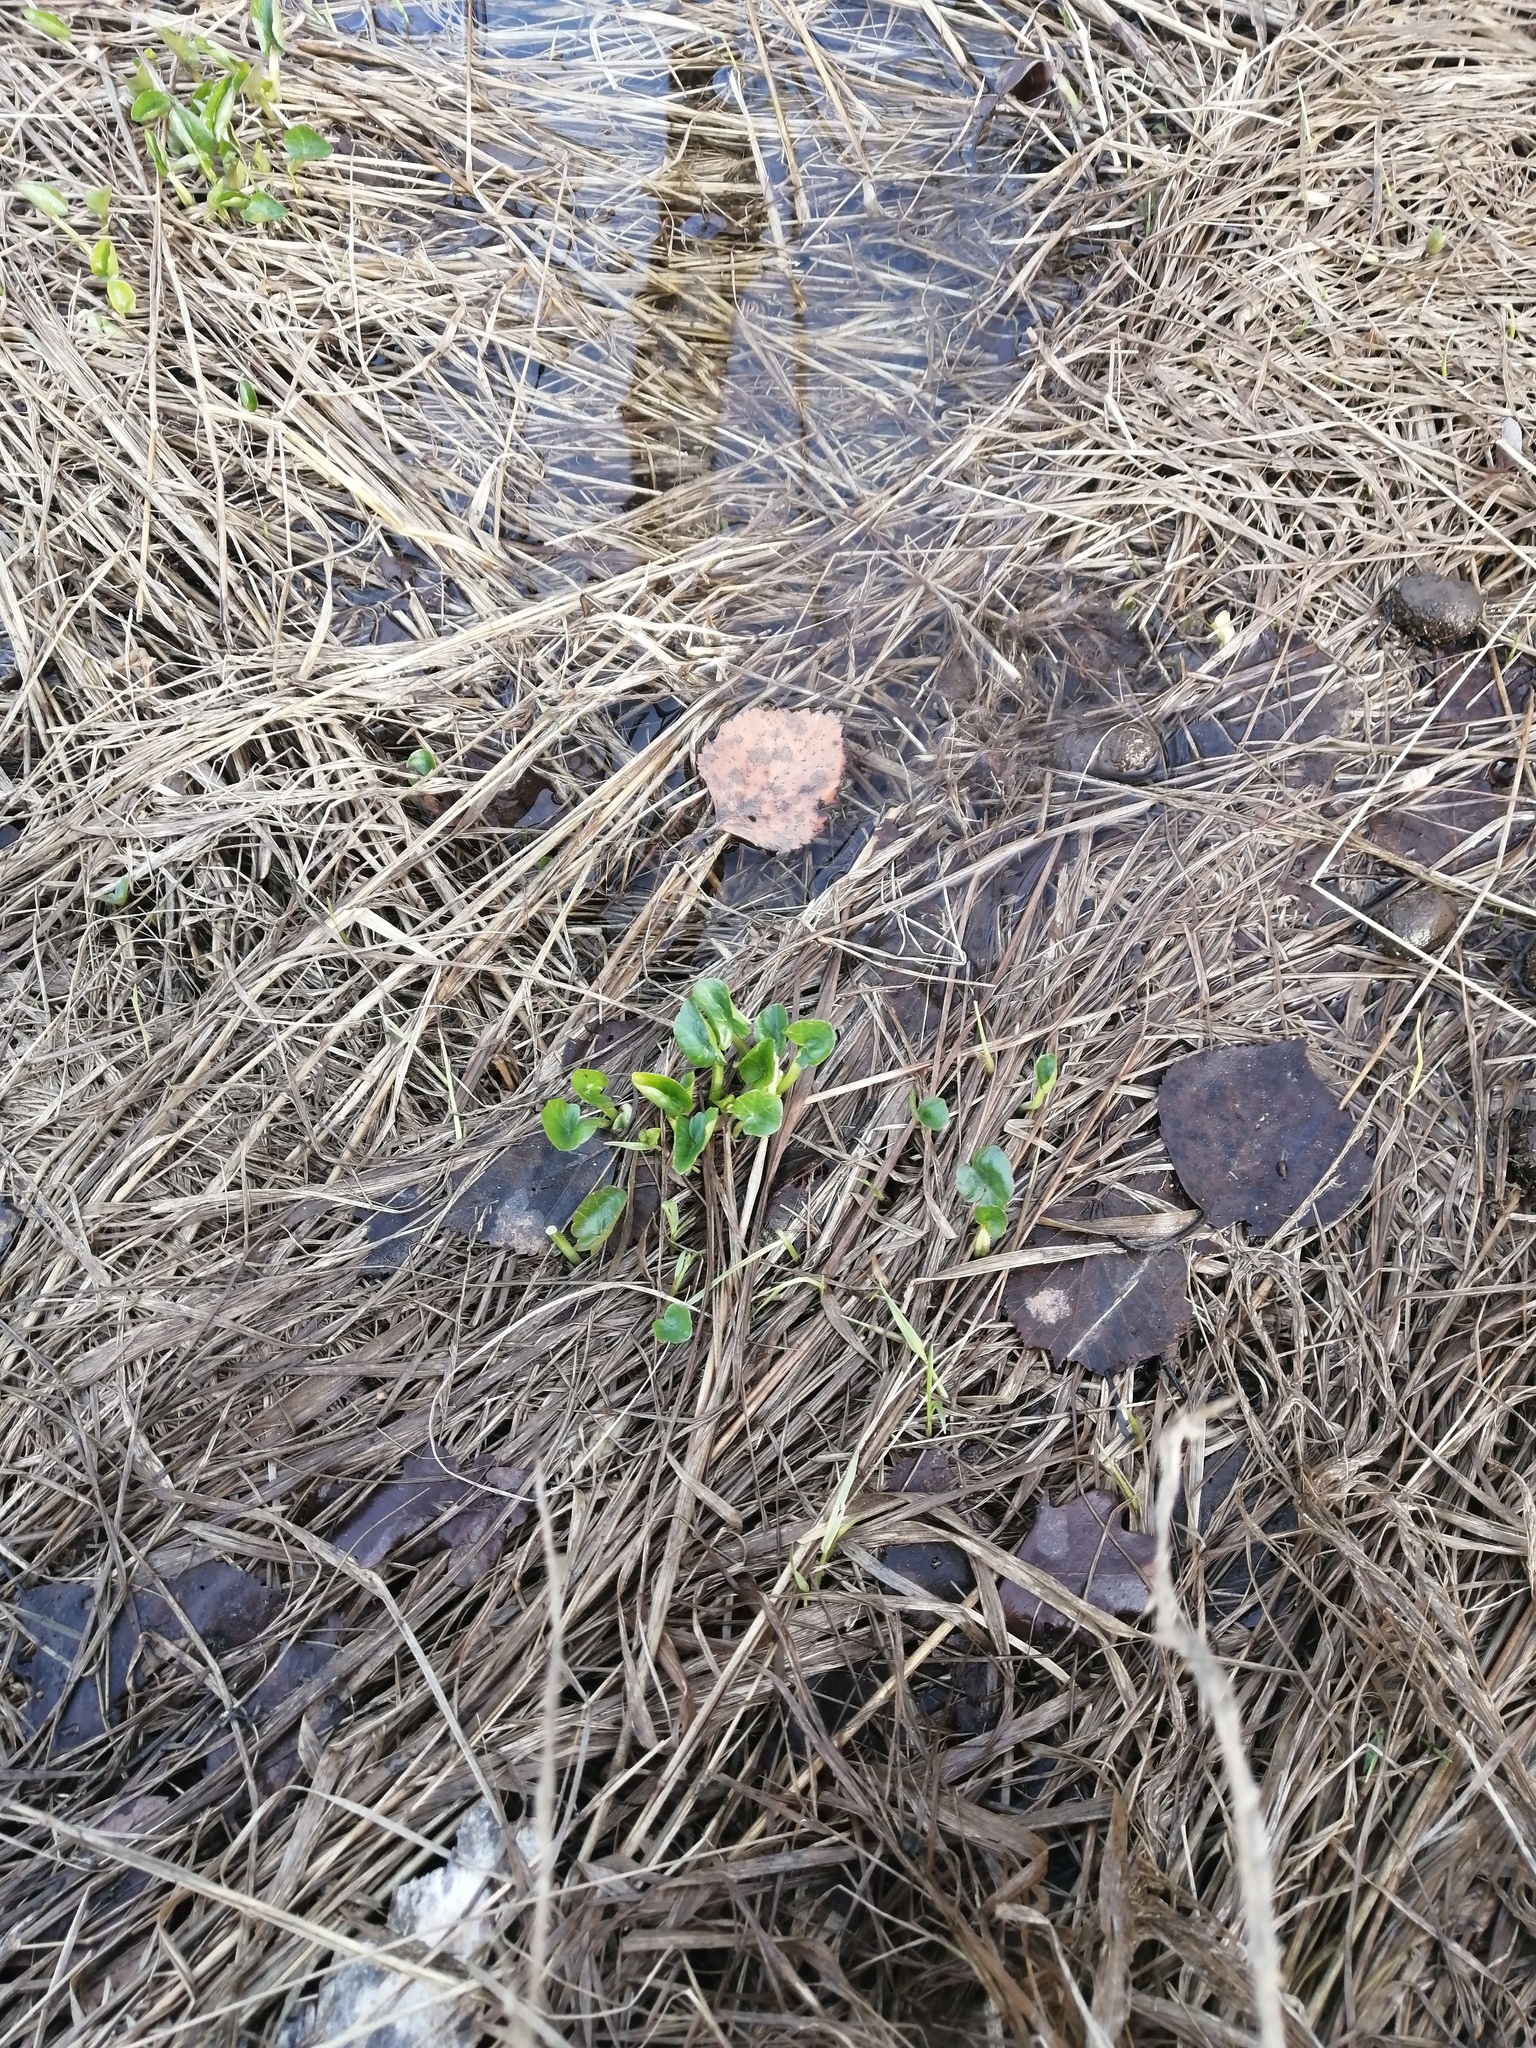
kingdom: Plantae
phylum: Tracheophyta
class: Magnoliopsida
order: Ranunculales
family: Ranunculaceae
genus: Ficaria
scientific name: Ficaria verna
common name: Lesser celandine
